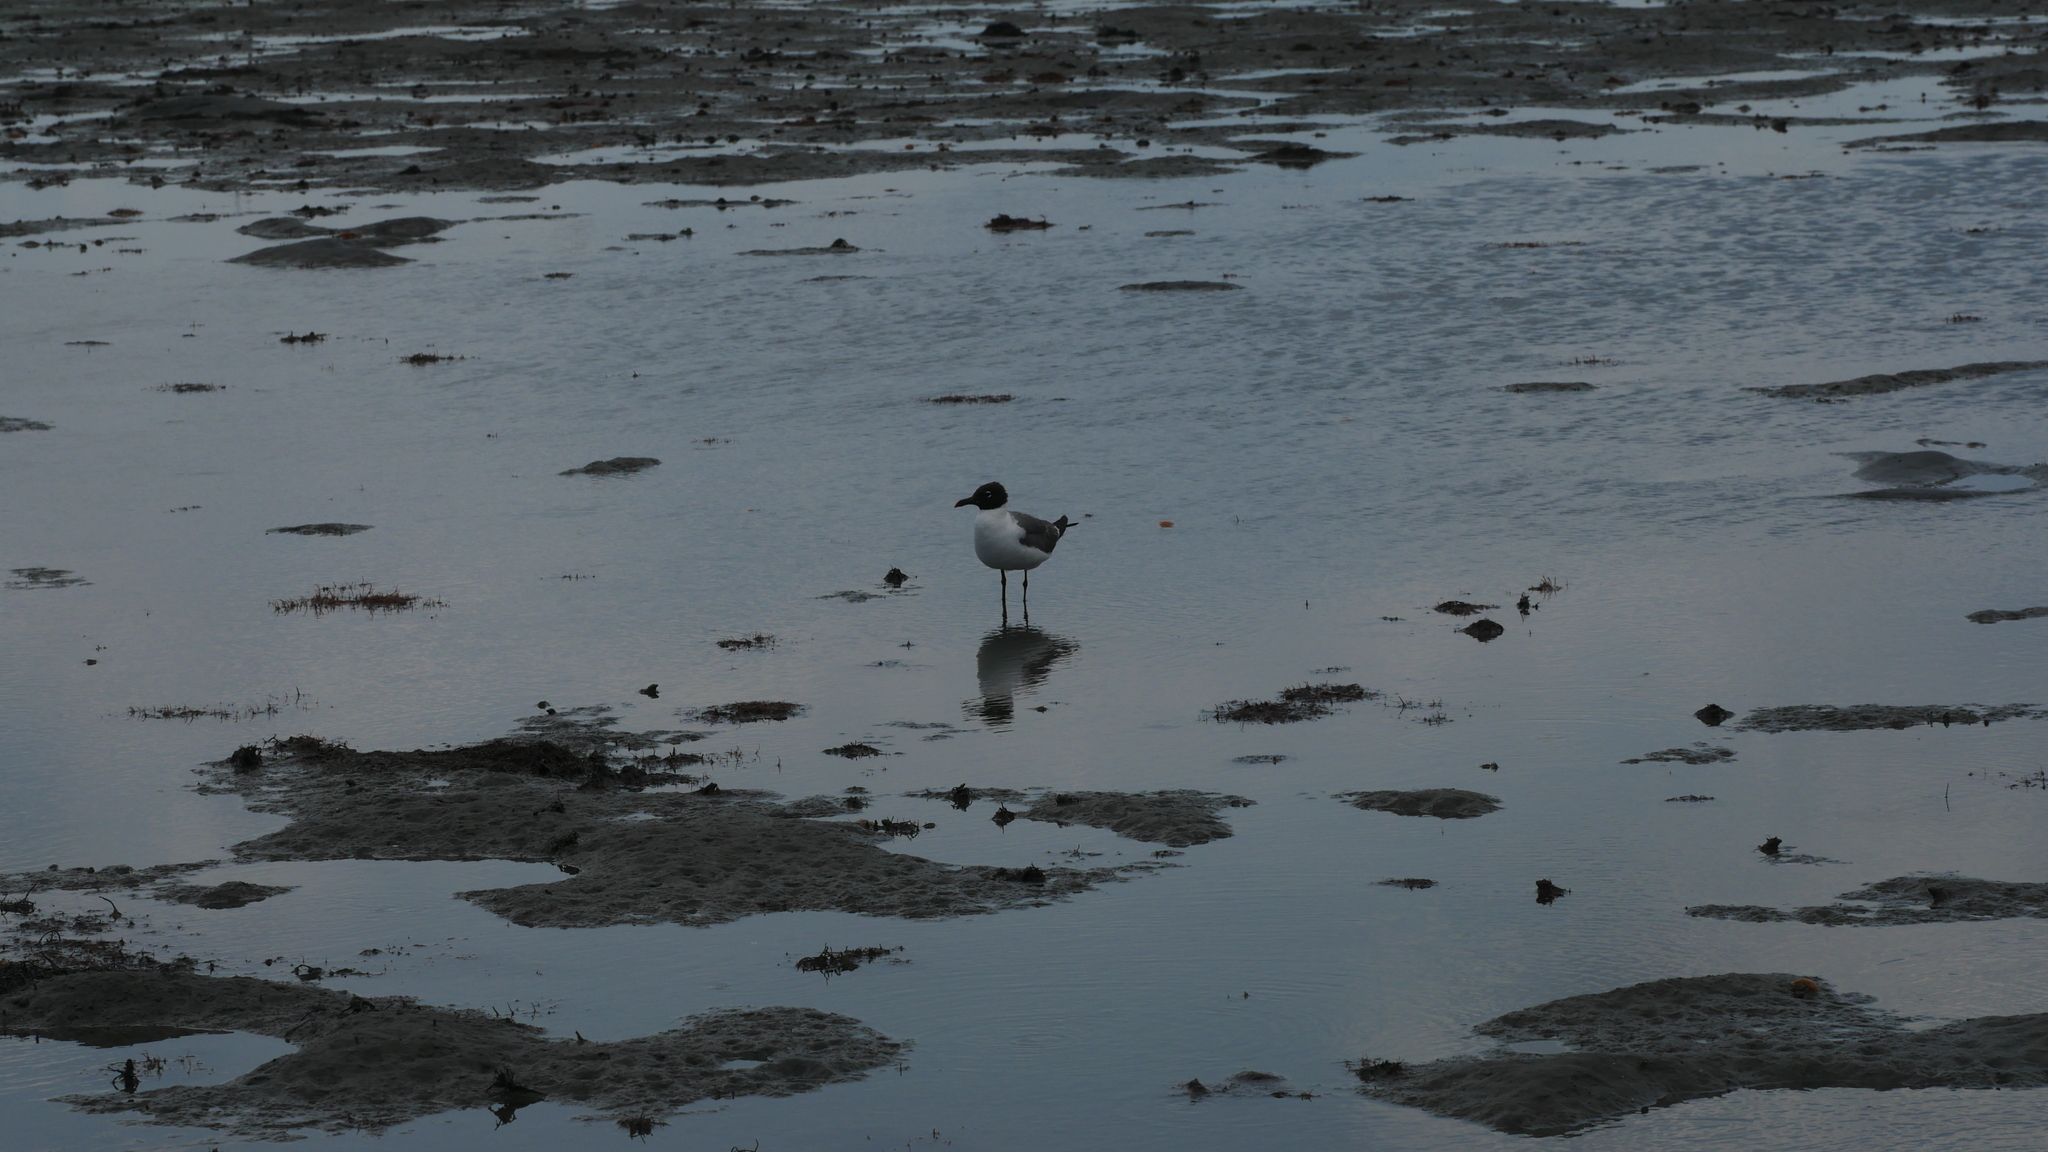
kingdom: Animalia
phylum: Chordata
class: Aves
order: Charadriiformes
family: Laridae
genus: Leucophaeus
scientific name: Leucophaeus atricilla
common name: Laughing gull
